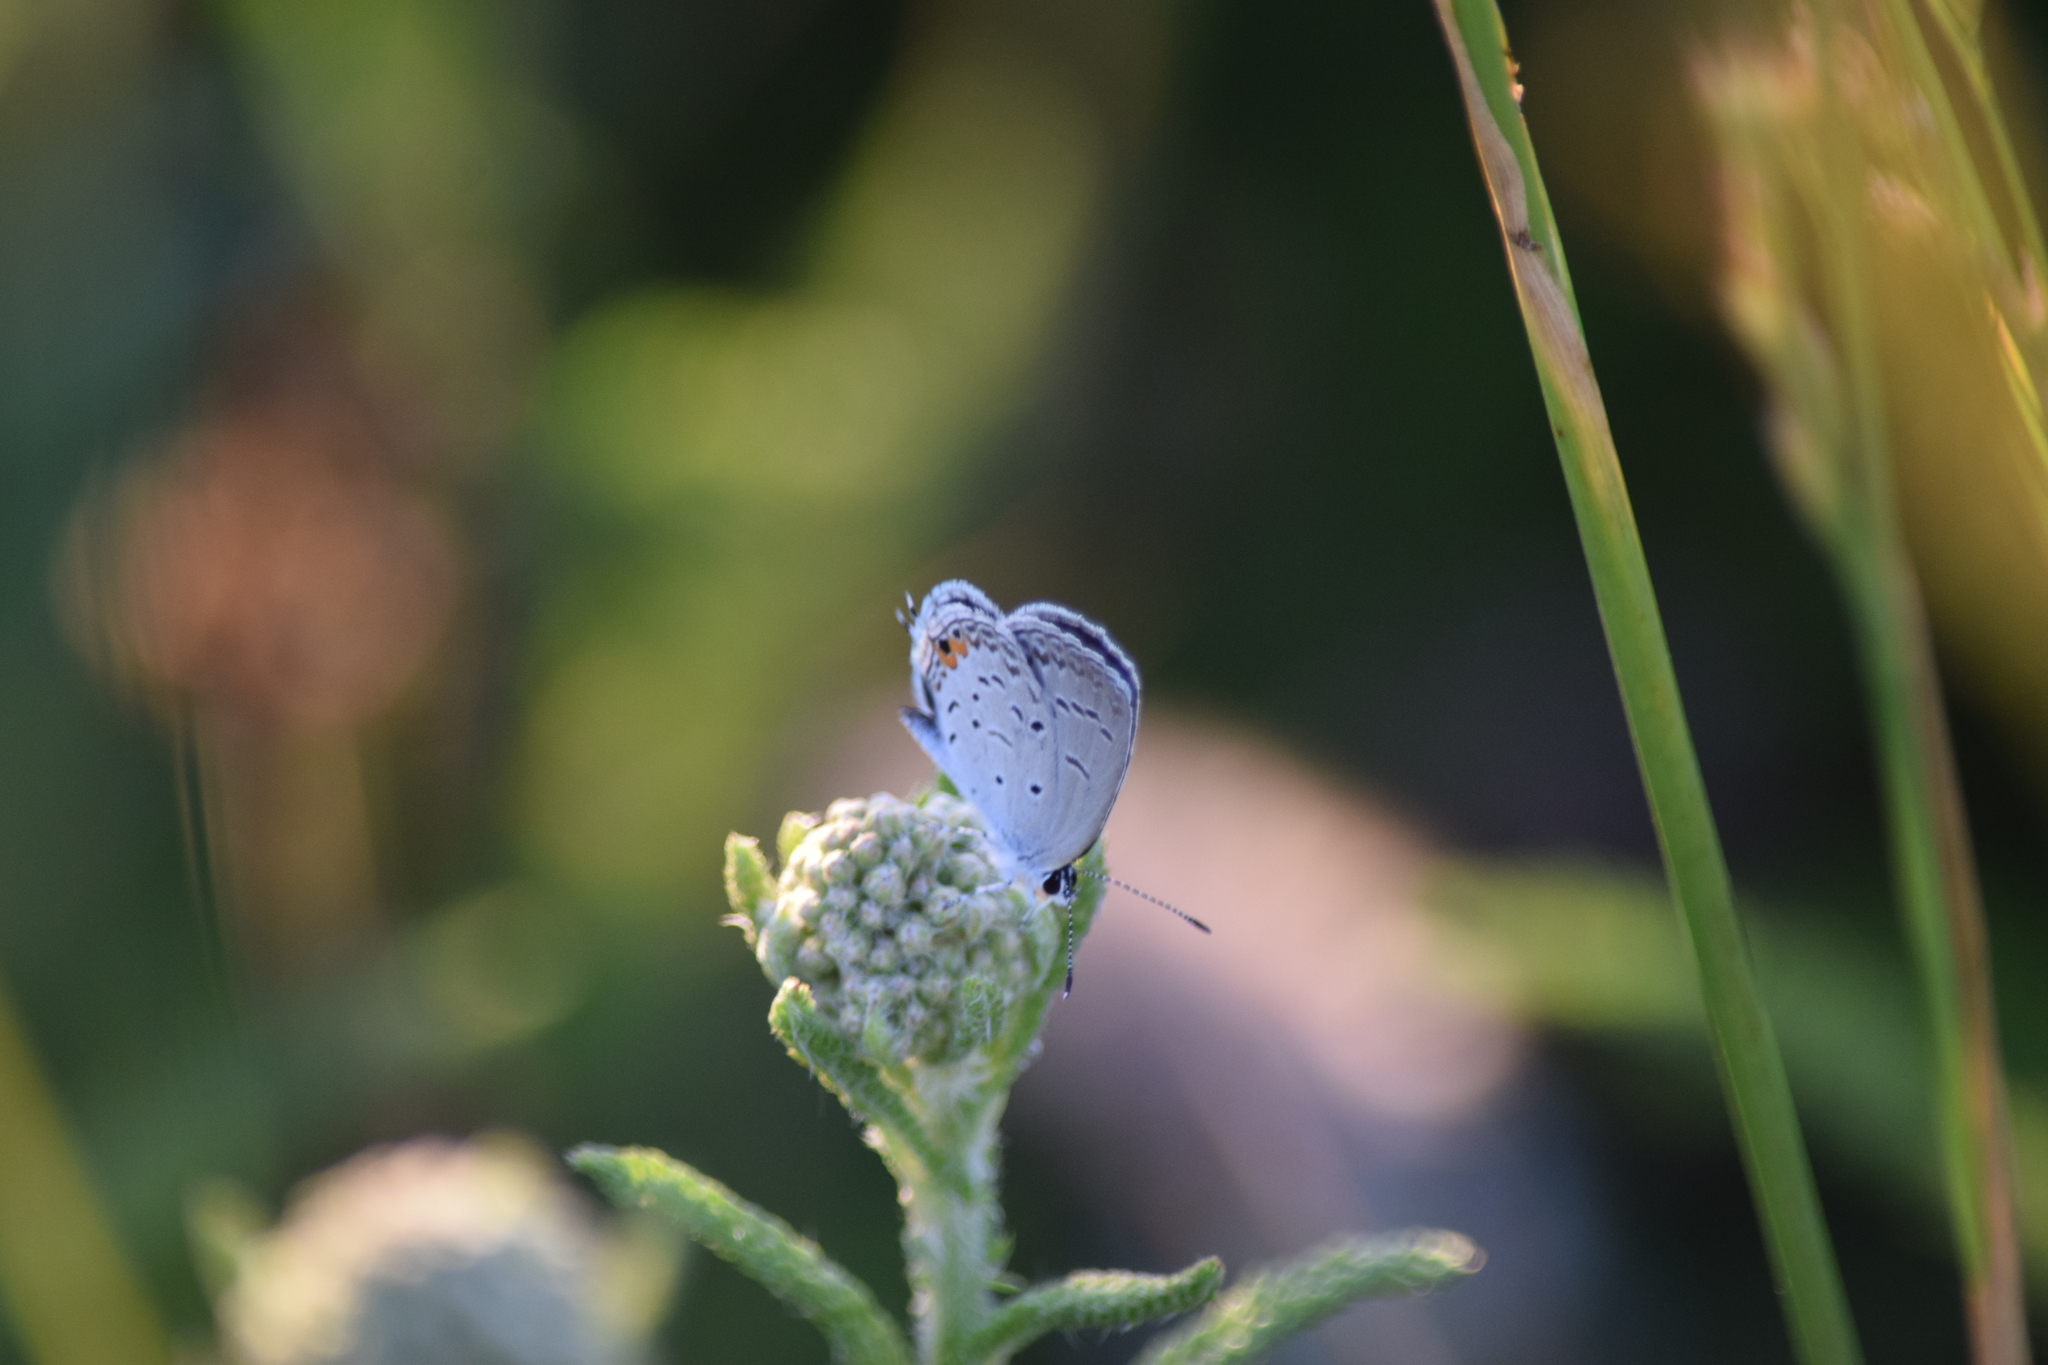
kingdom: Animalia
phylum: Arthropoda
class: Insecta
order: Lepidoptera
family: Lycaenidae
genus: Elkalyce
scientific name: Elkalyce comyntas
